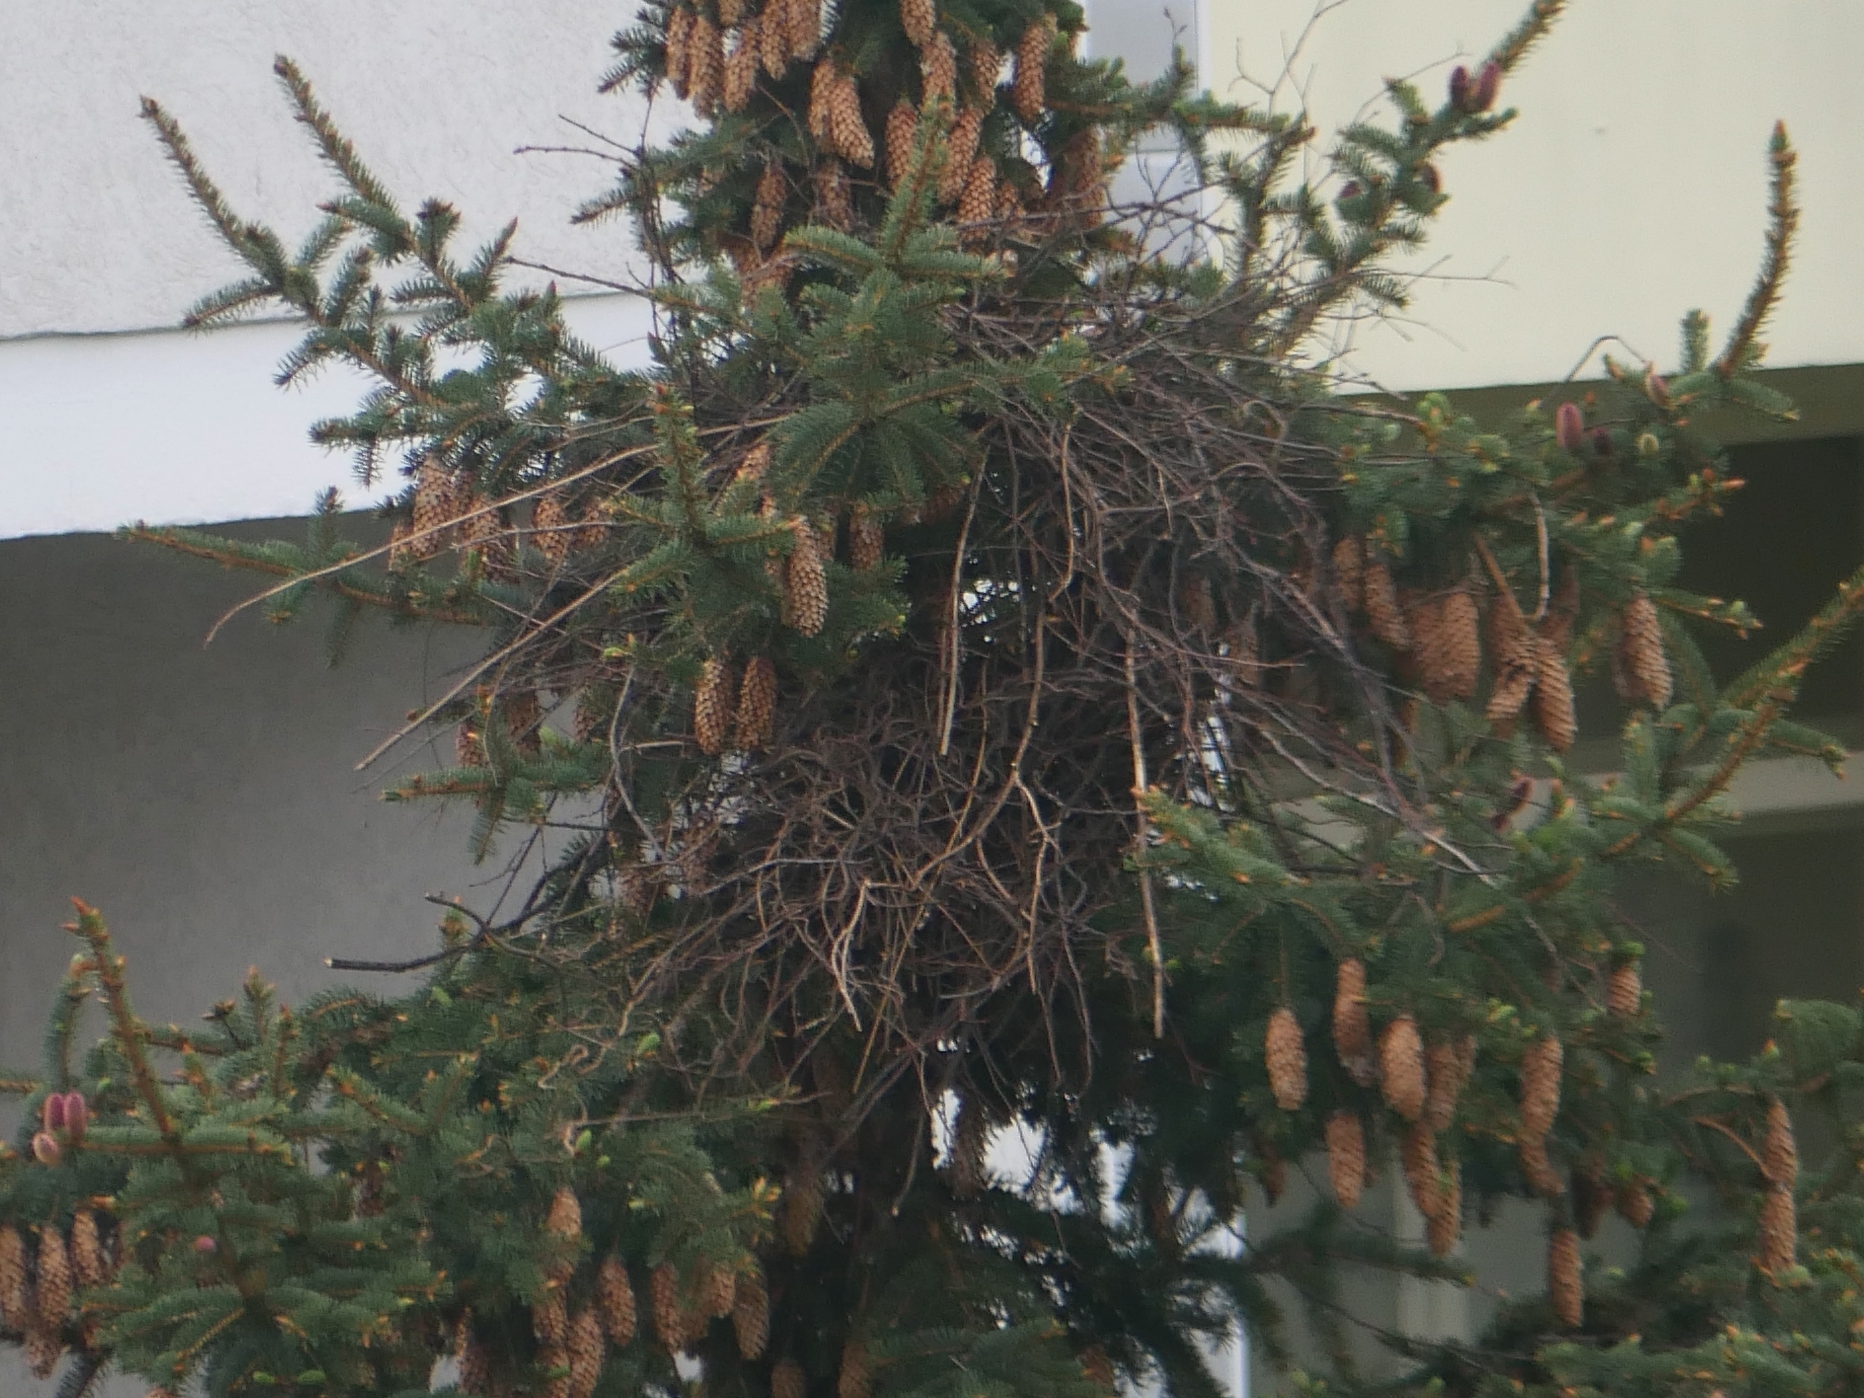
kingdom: Animalia
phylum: Chordata
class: Aves
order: Passeriformes
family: Corvidae
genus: Pica
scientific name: Pica pica
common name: Eurasian magpie
